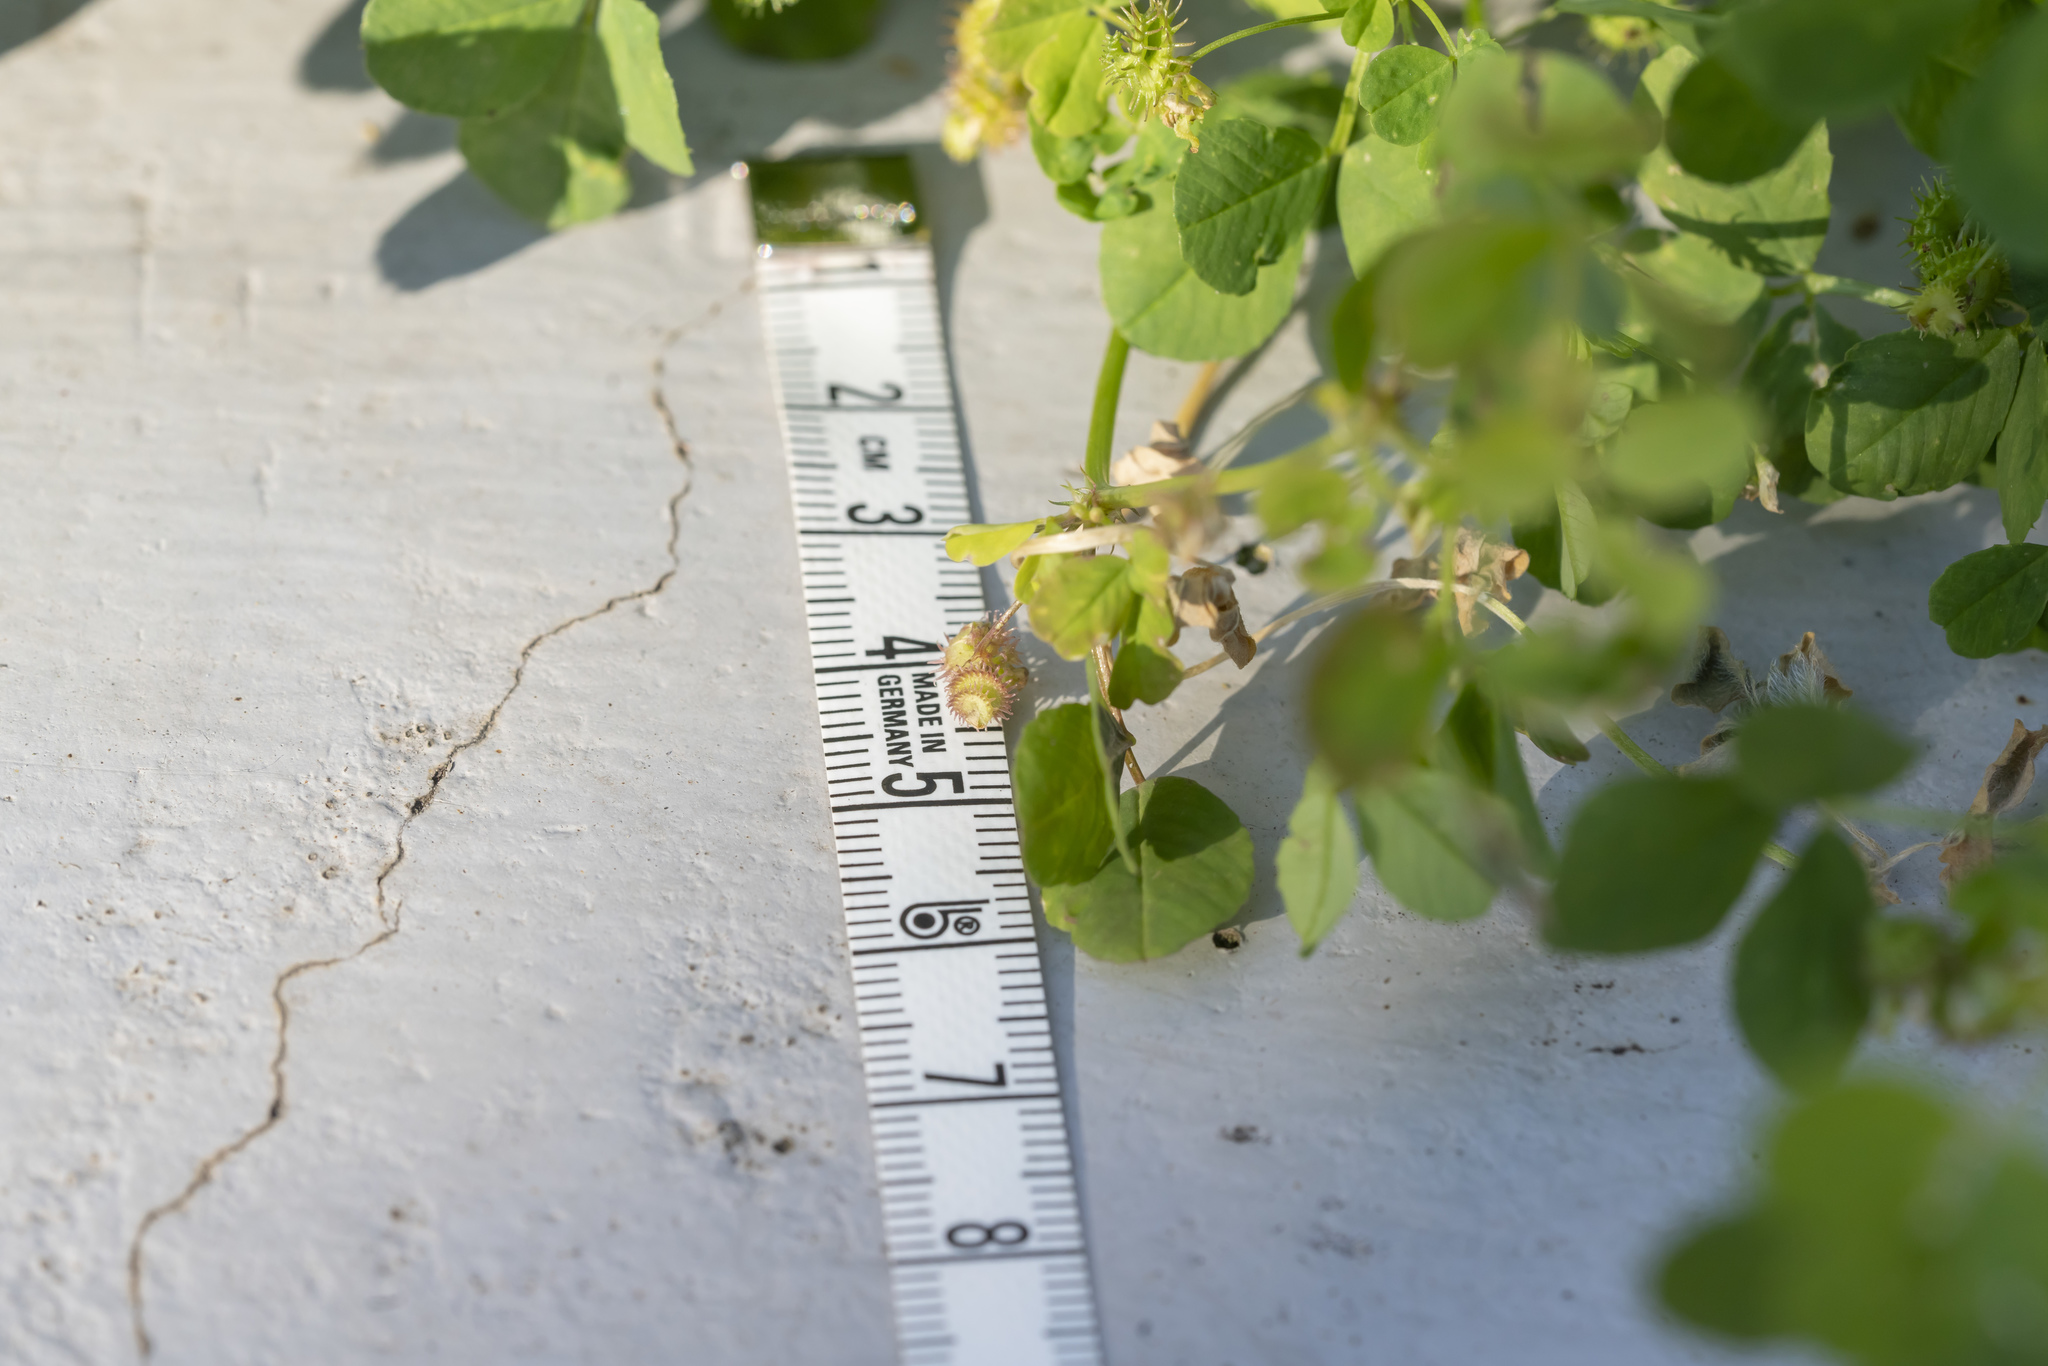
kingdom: Plantae
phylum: Tracheophyta
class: Magnoliopsida
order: Fabales
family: Fabaceae
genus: Medicago
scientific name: Medicago polymorpha
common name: Burclover
